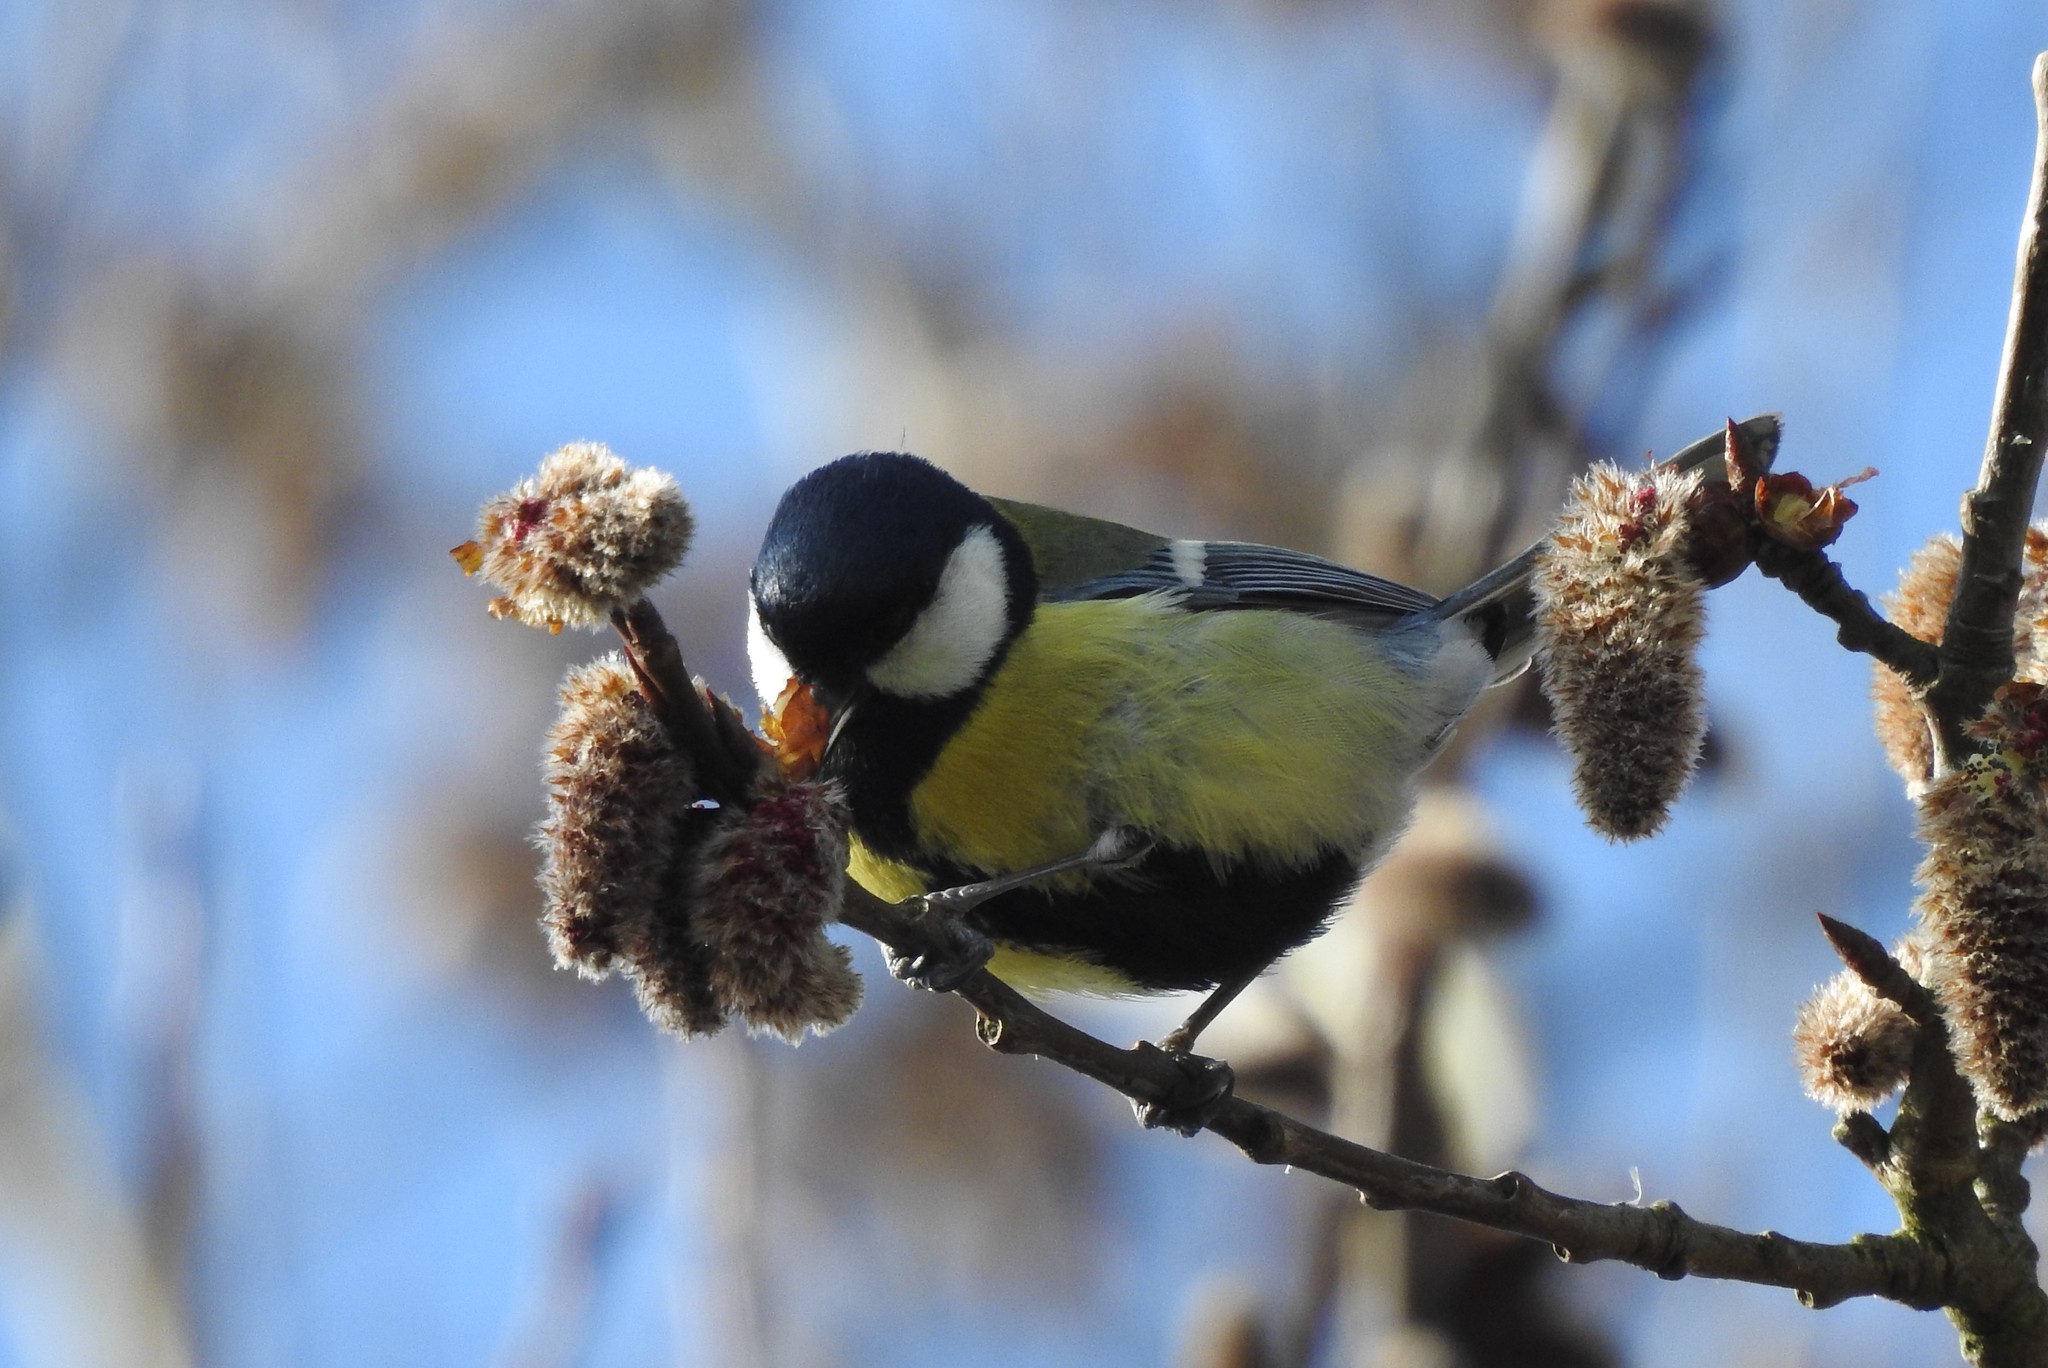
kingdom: Animalia
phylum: Chordata
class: Aves
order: Passeriformes
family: Paridae
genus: Parus
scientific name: Parus major
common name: Great tit
